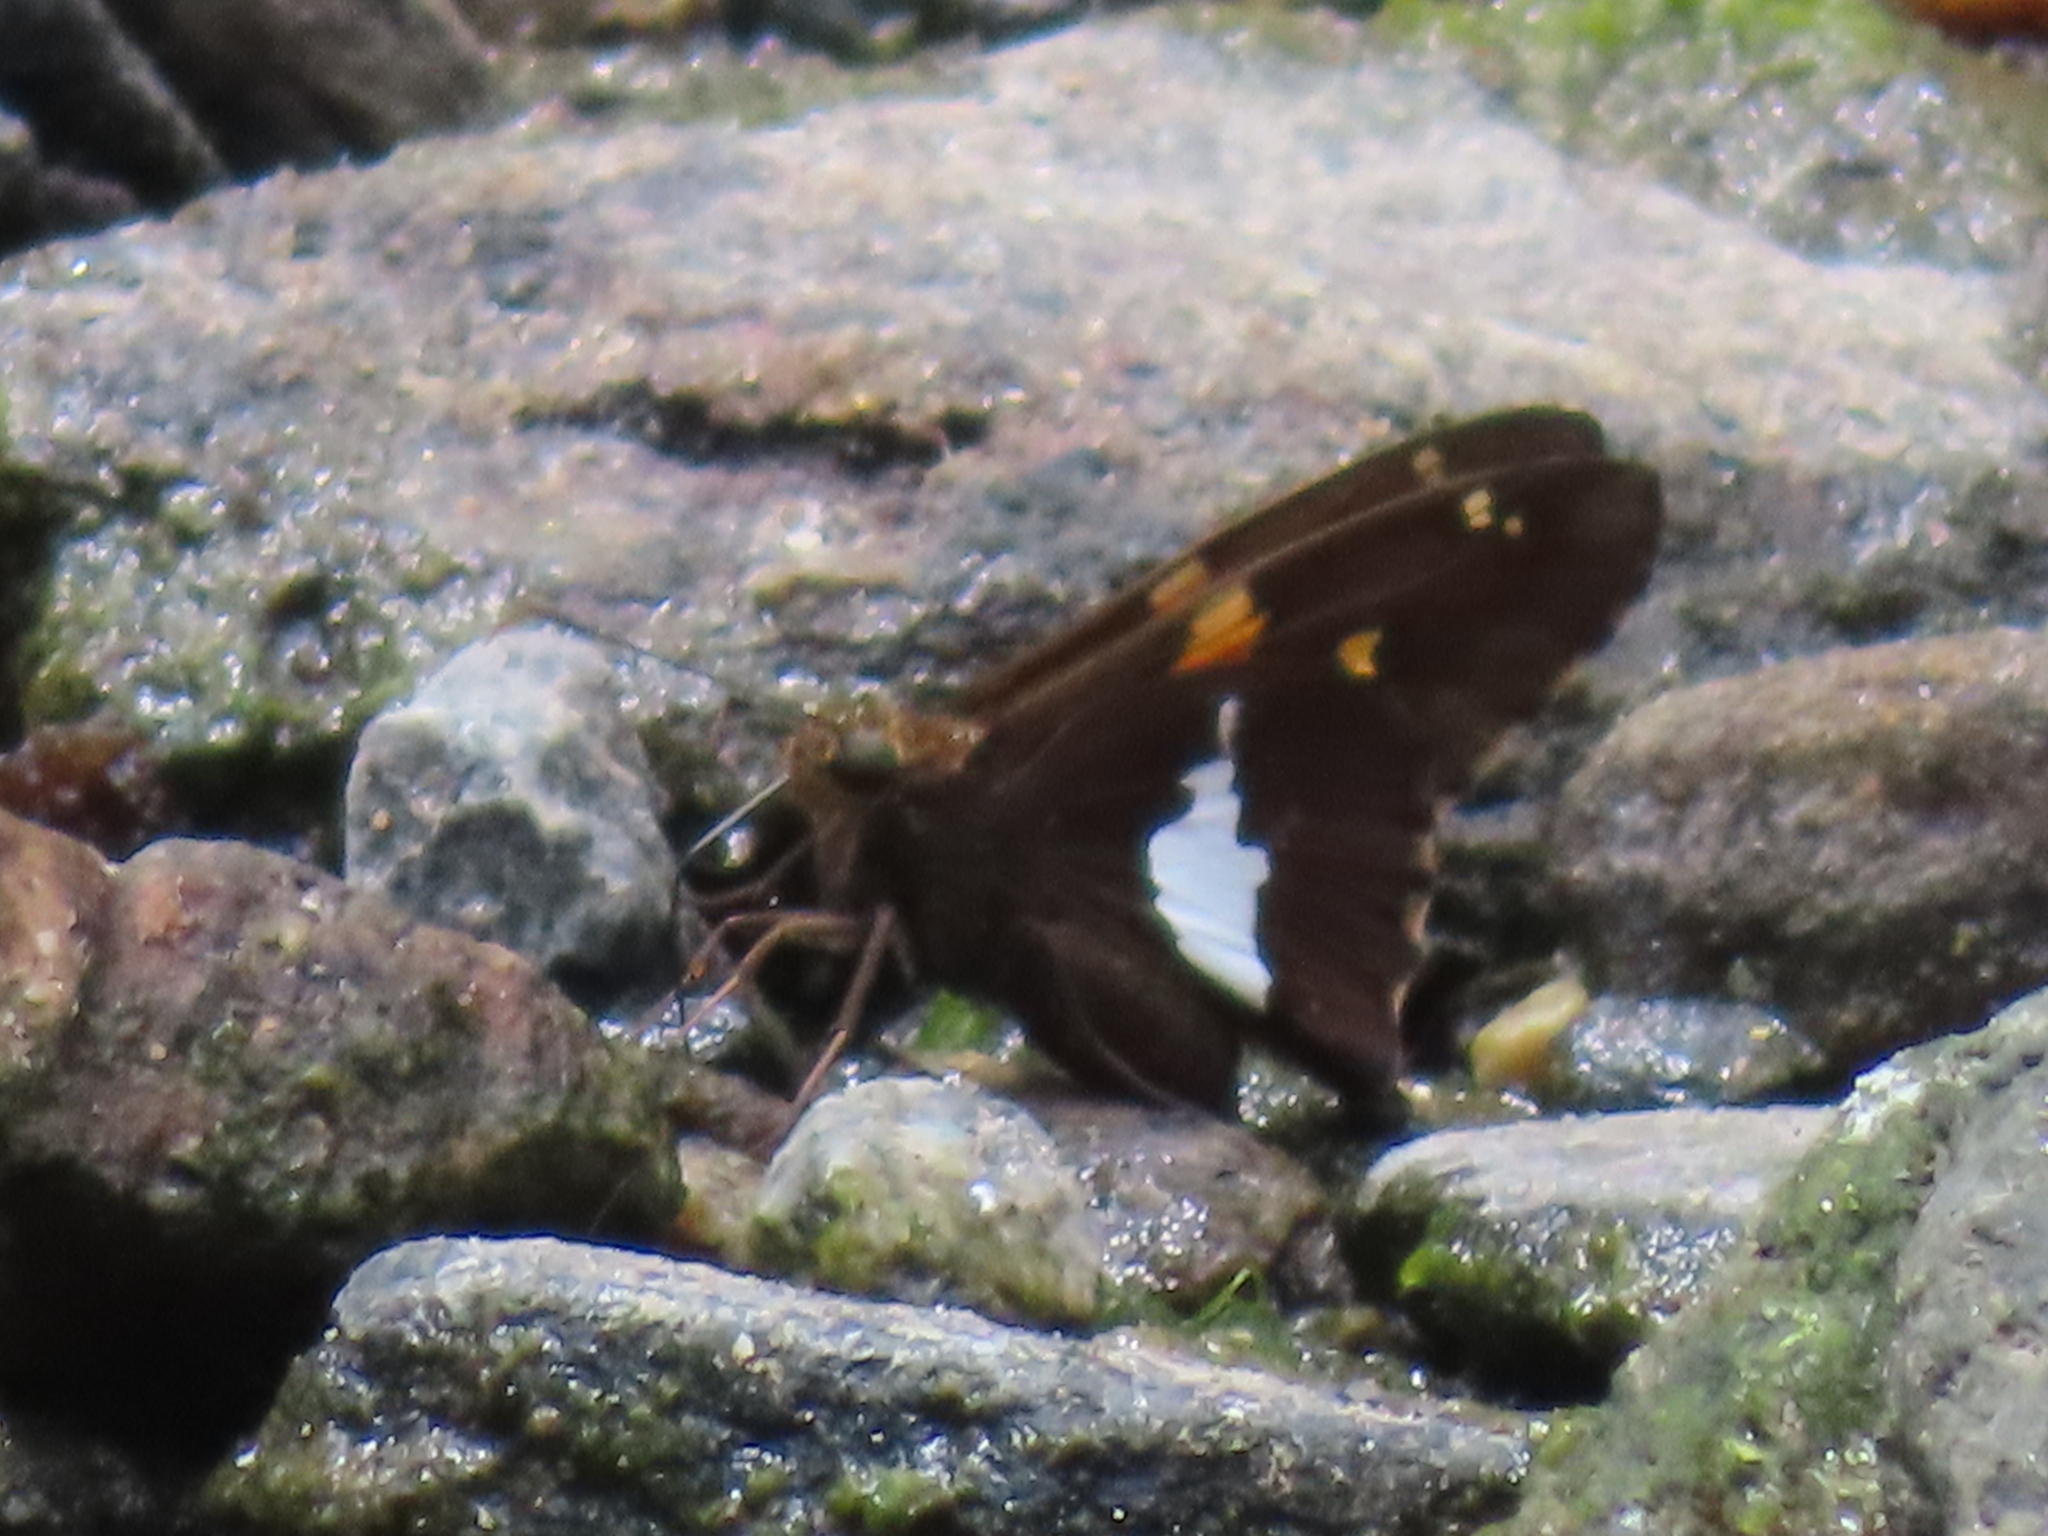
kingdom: Animalia
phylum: Arthropoda
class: Insecta
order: Lepidoptera
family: Hesperiidae
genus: Epargyreus
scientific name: Epargyreus clarus
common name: Silver-spotted skipper
